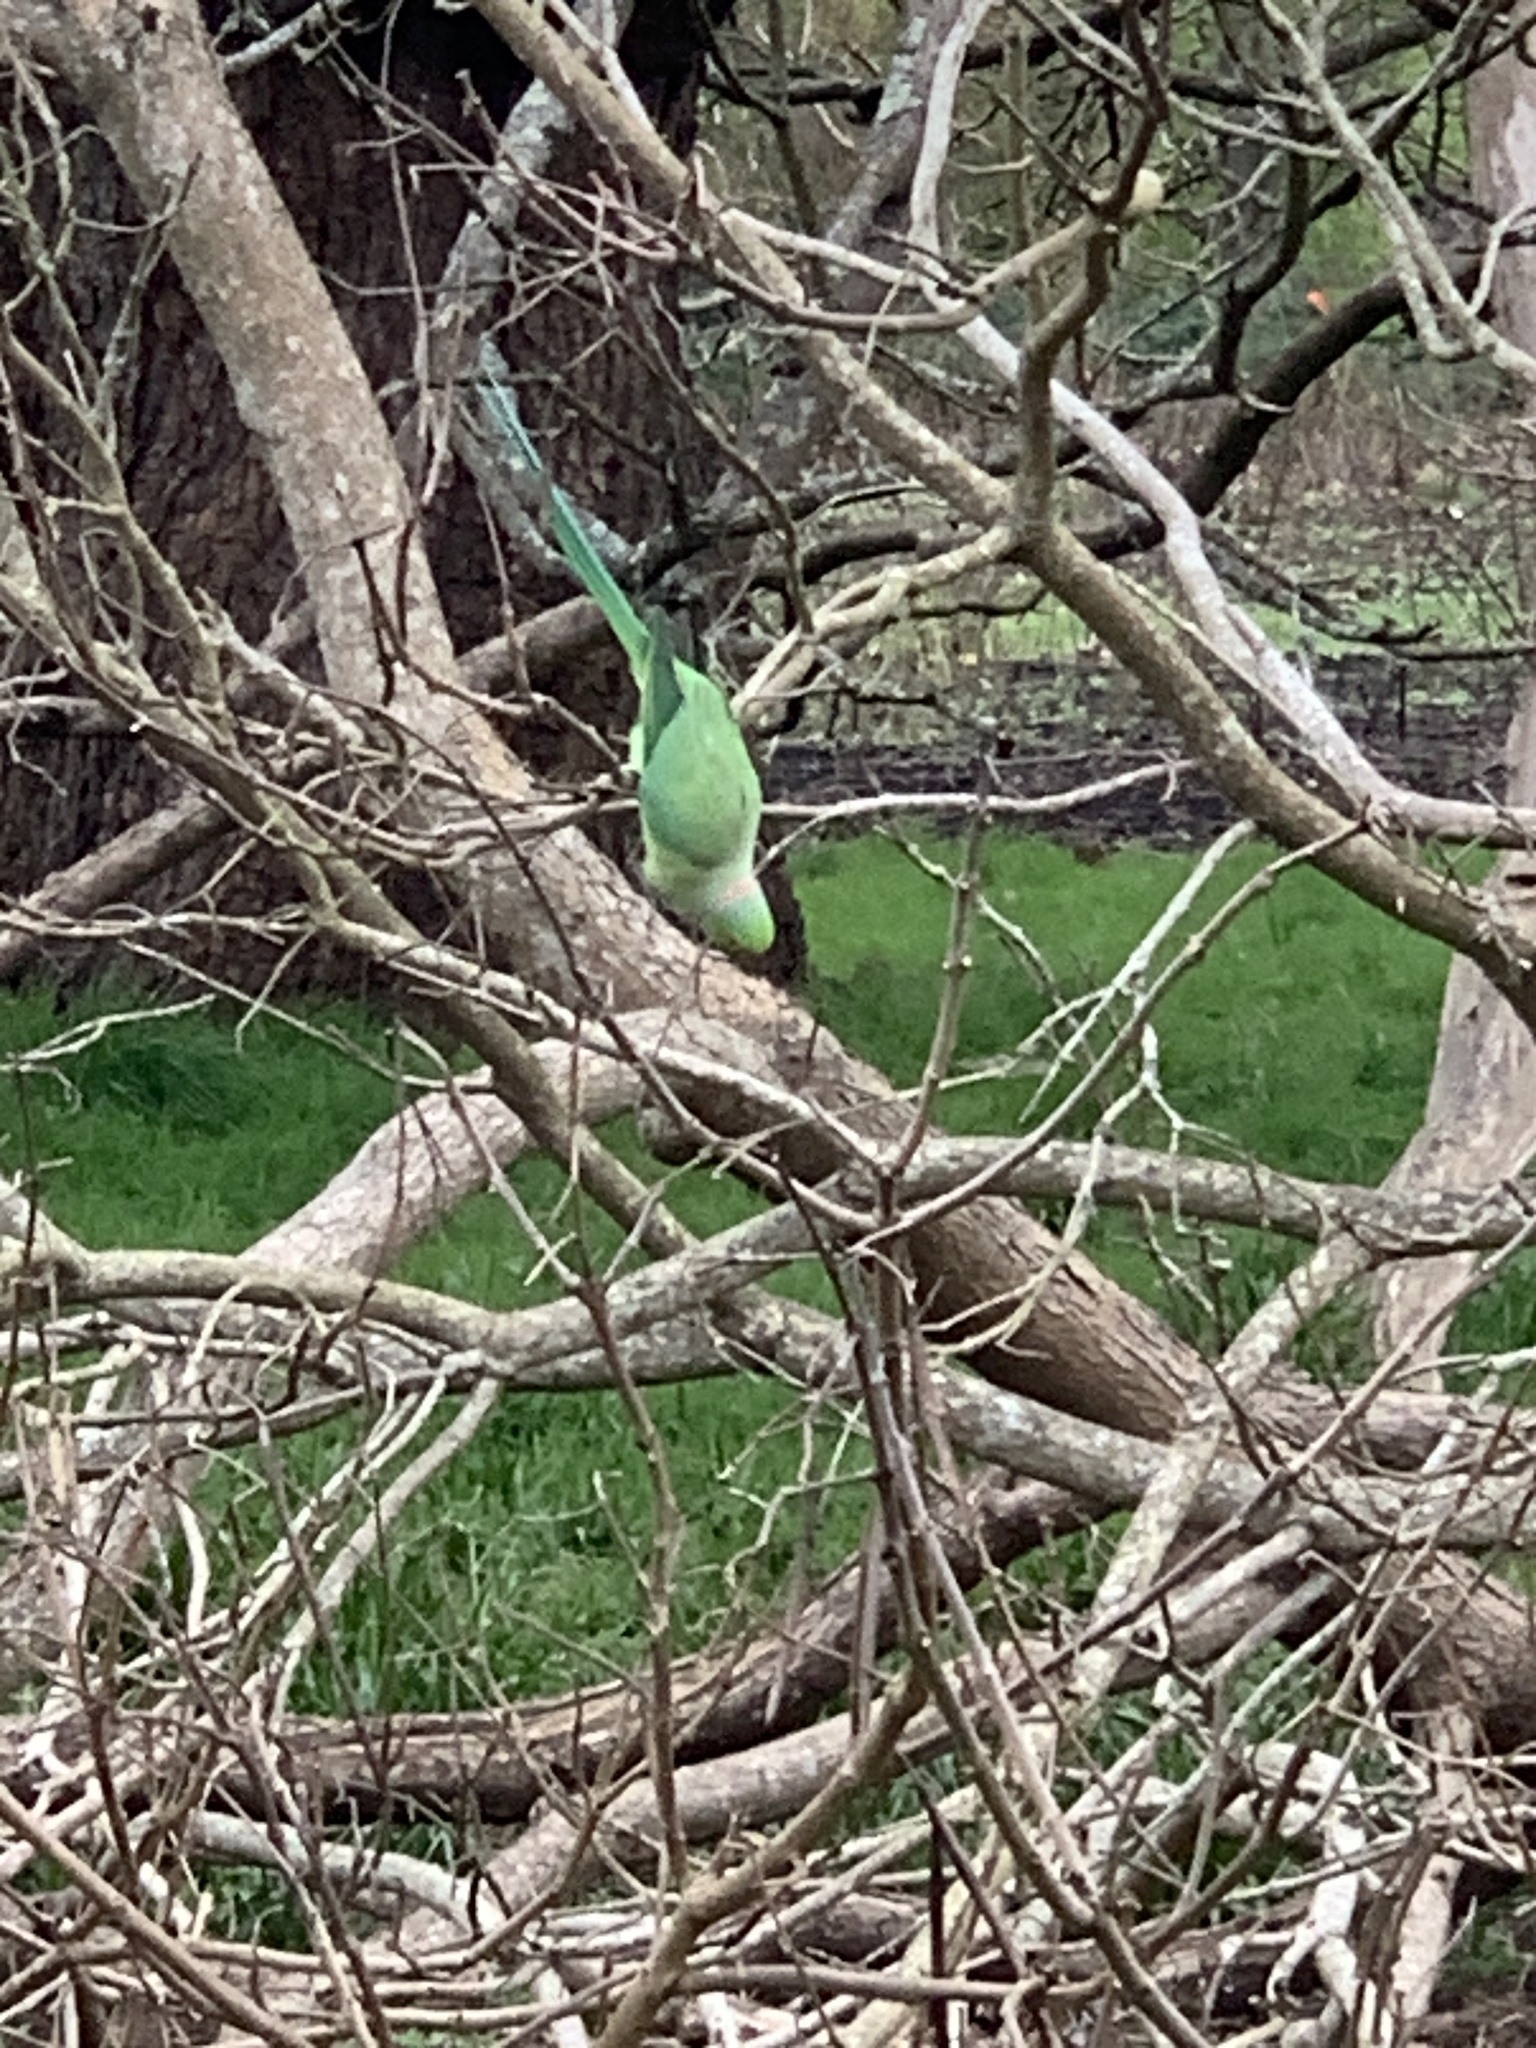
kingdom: Animalia
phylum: Chordata
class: Aves
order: Psittaciformes
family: Psittacidae
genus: Psittacula
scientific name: Psittacula krameri
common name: Rose-ringed parakeet
